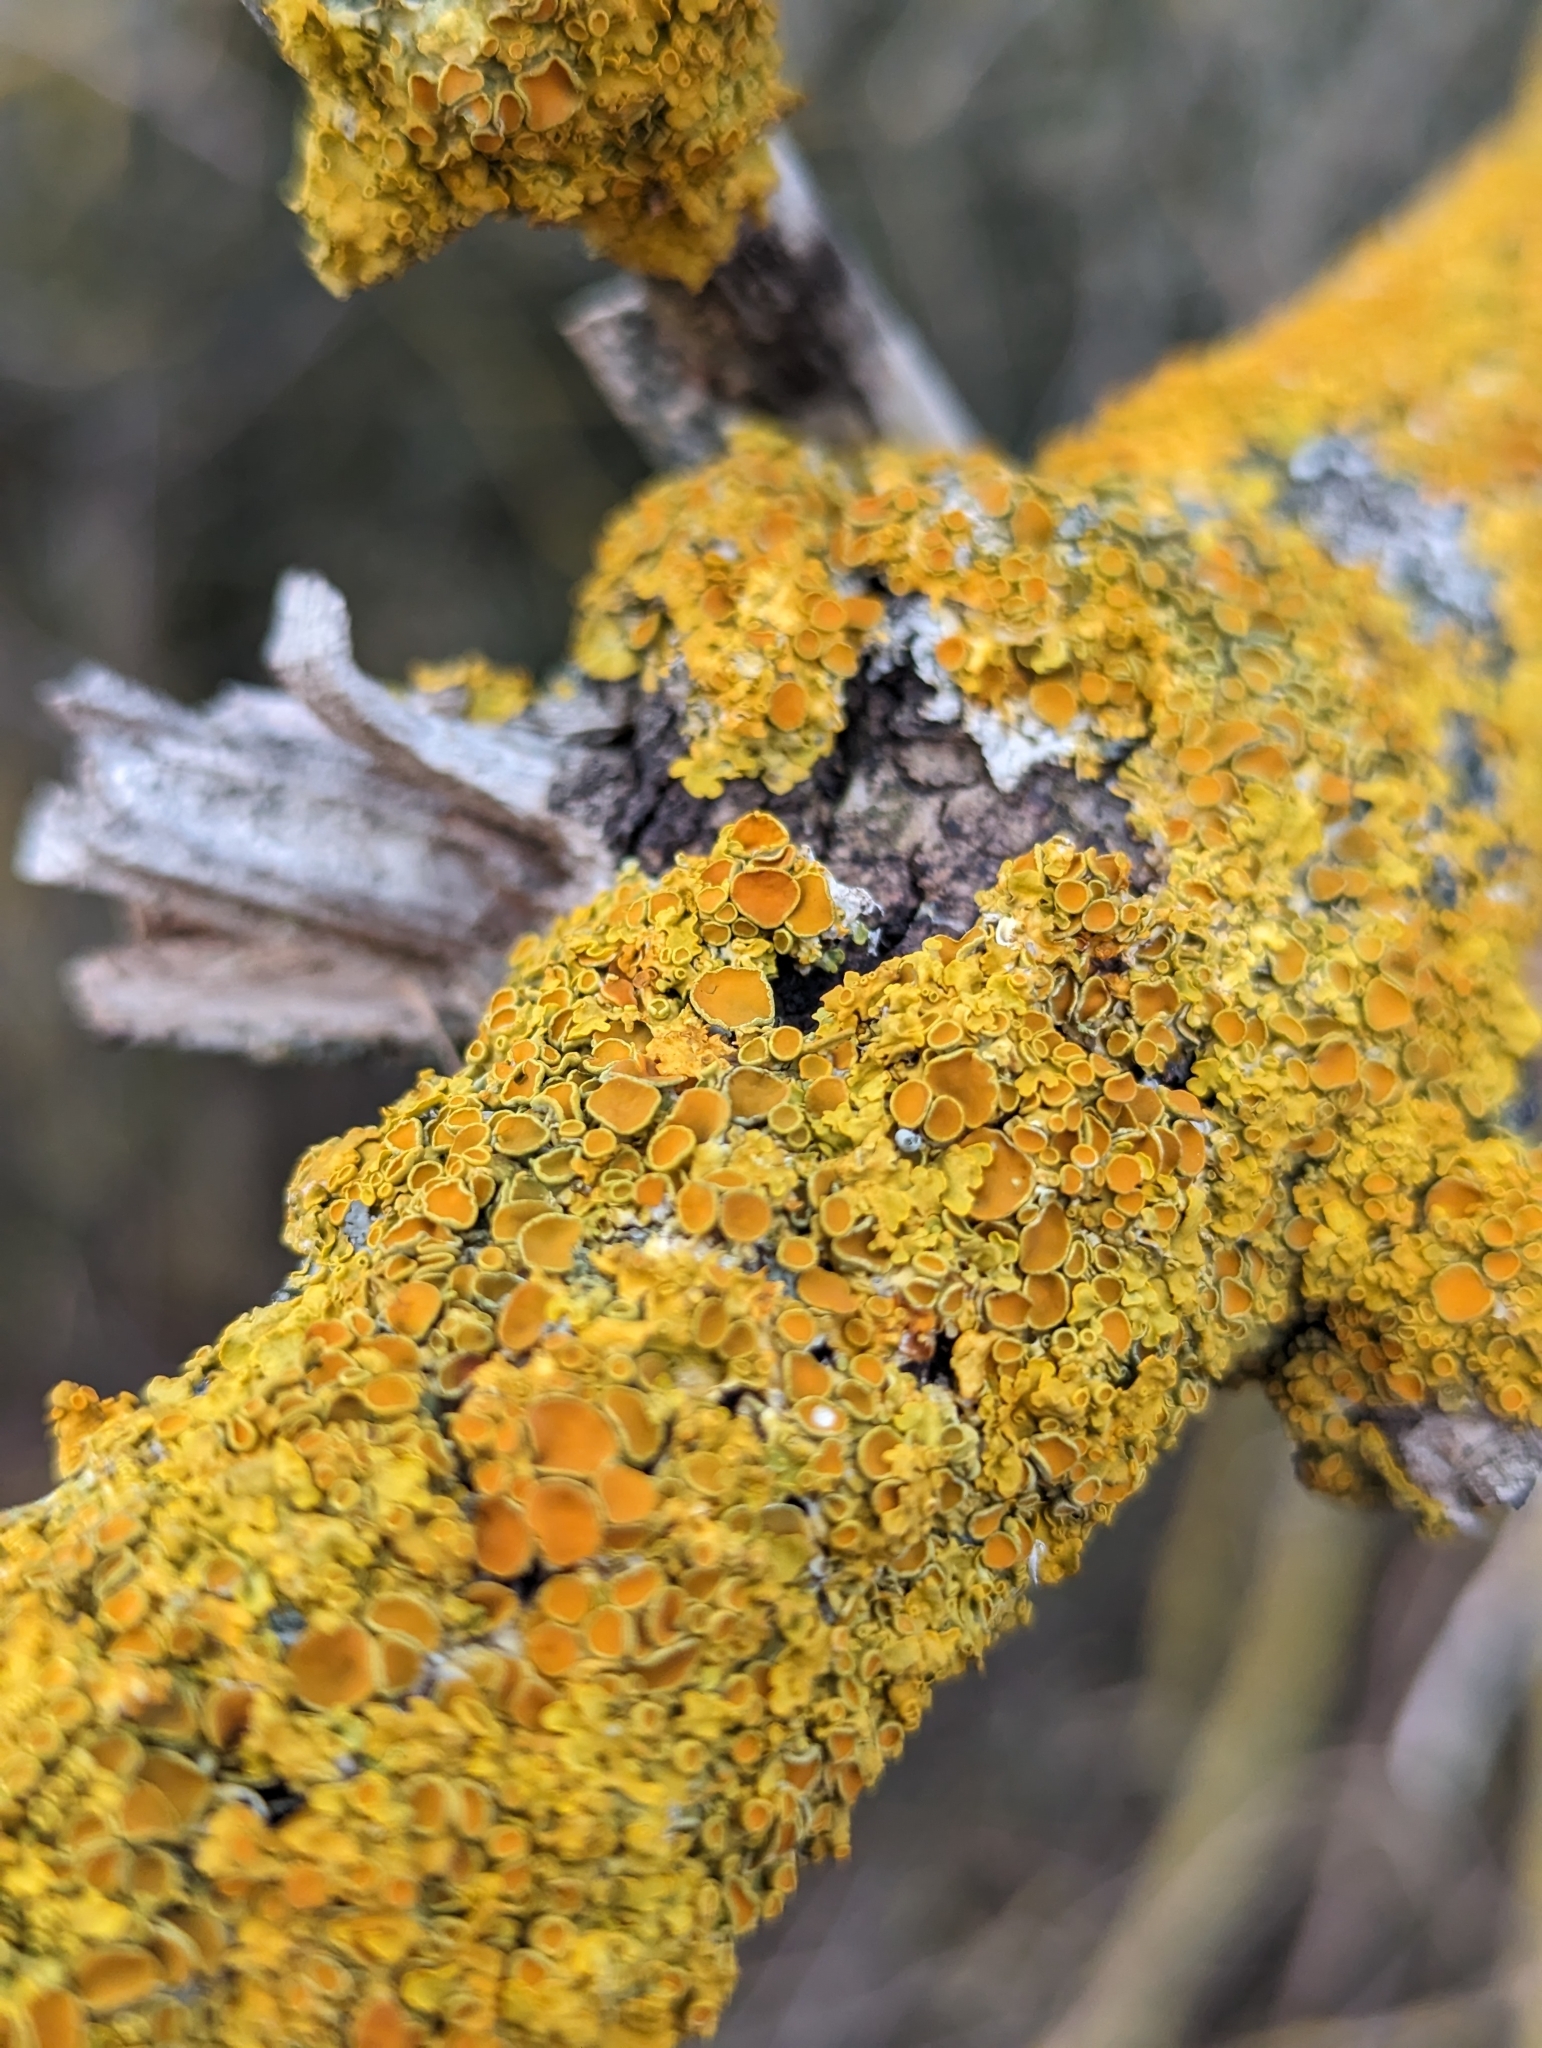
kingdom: Fungi
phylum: Ascomycota
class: Lecanoromycetes
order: Teloschistales
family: Teloschistaceae
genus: Xanthoria
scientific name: Xanthoria parietina
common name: Common orange lichen
